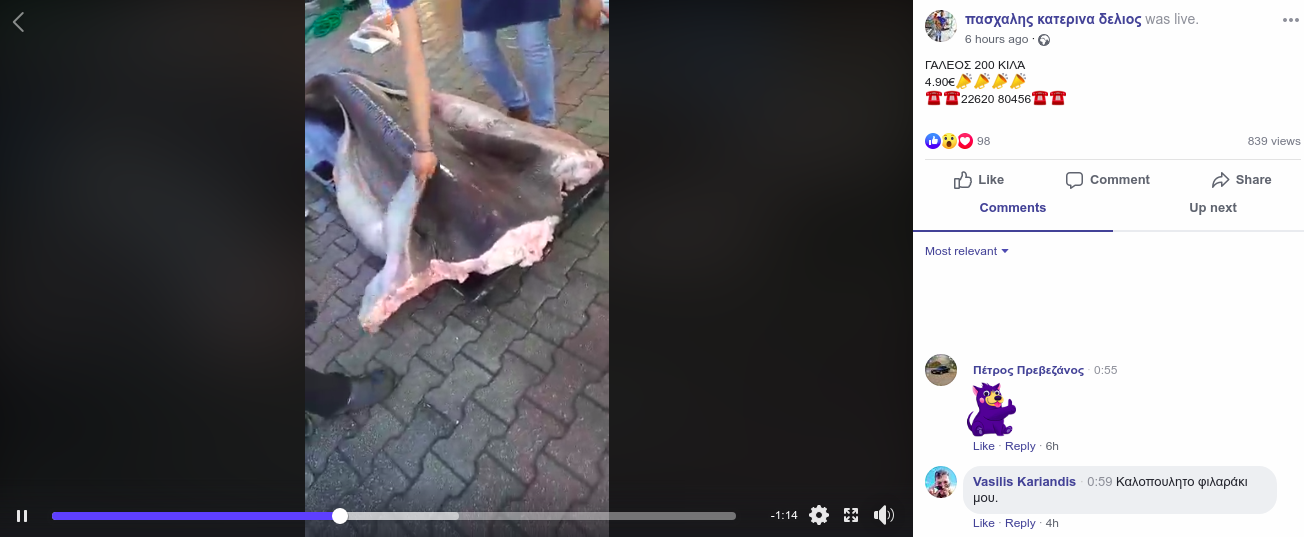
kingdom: Animalia
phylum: Chordata
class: Elasmobranchii
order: Hexanchiformes
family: Hexanchidae
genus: Hexanchus
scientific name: Hexanchus griseus
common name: Bluntnose sixgill shark
